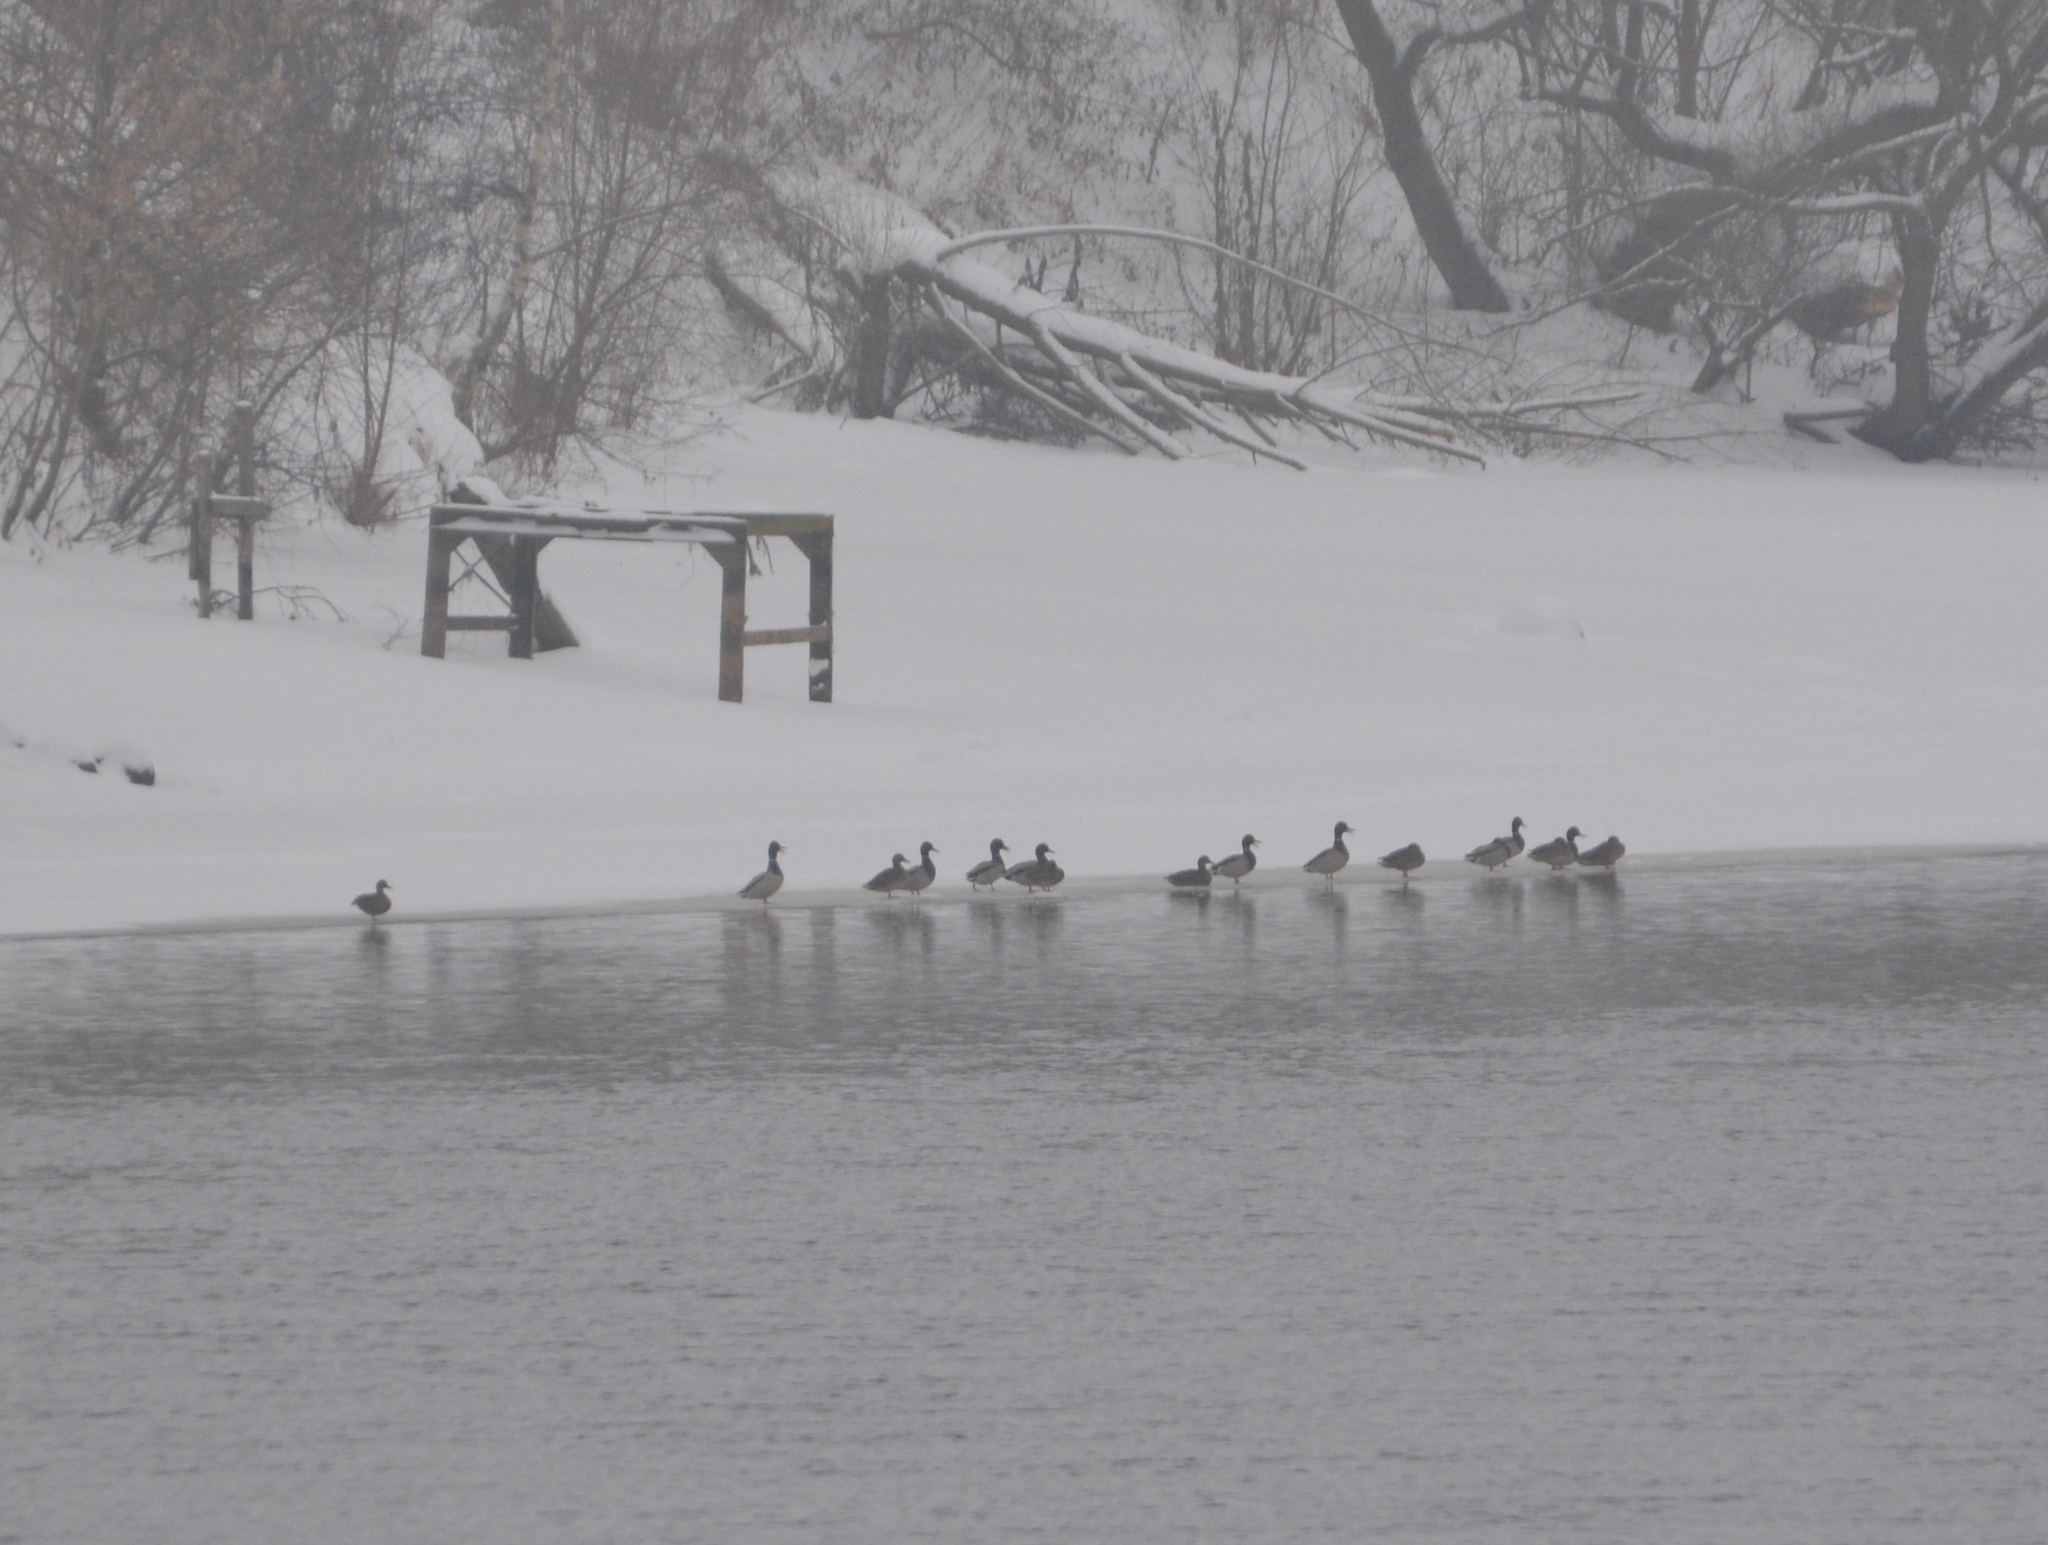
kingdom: Animalia
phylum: Chordata
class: Aves
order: Anseriformes
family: Anatidae
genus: Anas
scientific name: Anas platyrhynchos
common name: Mallard
